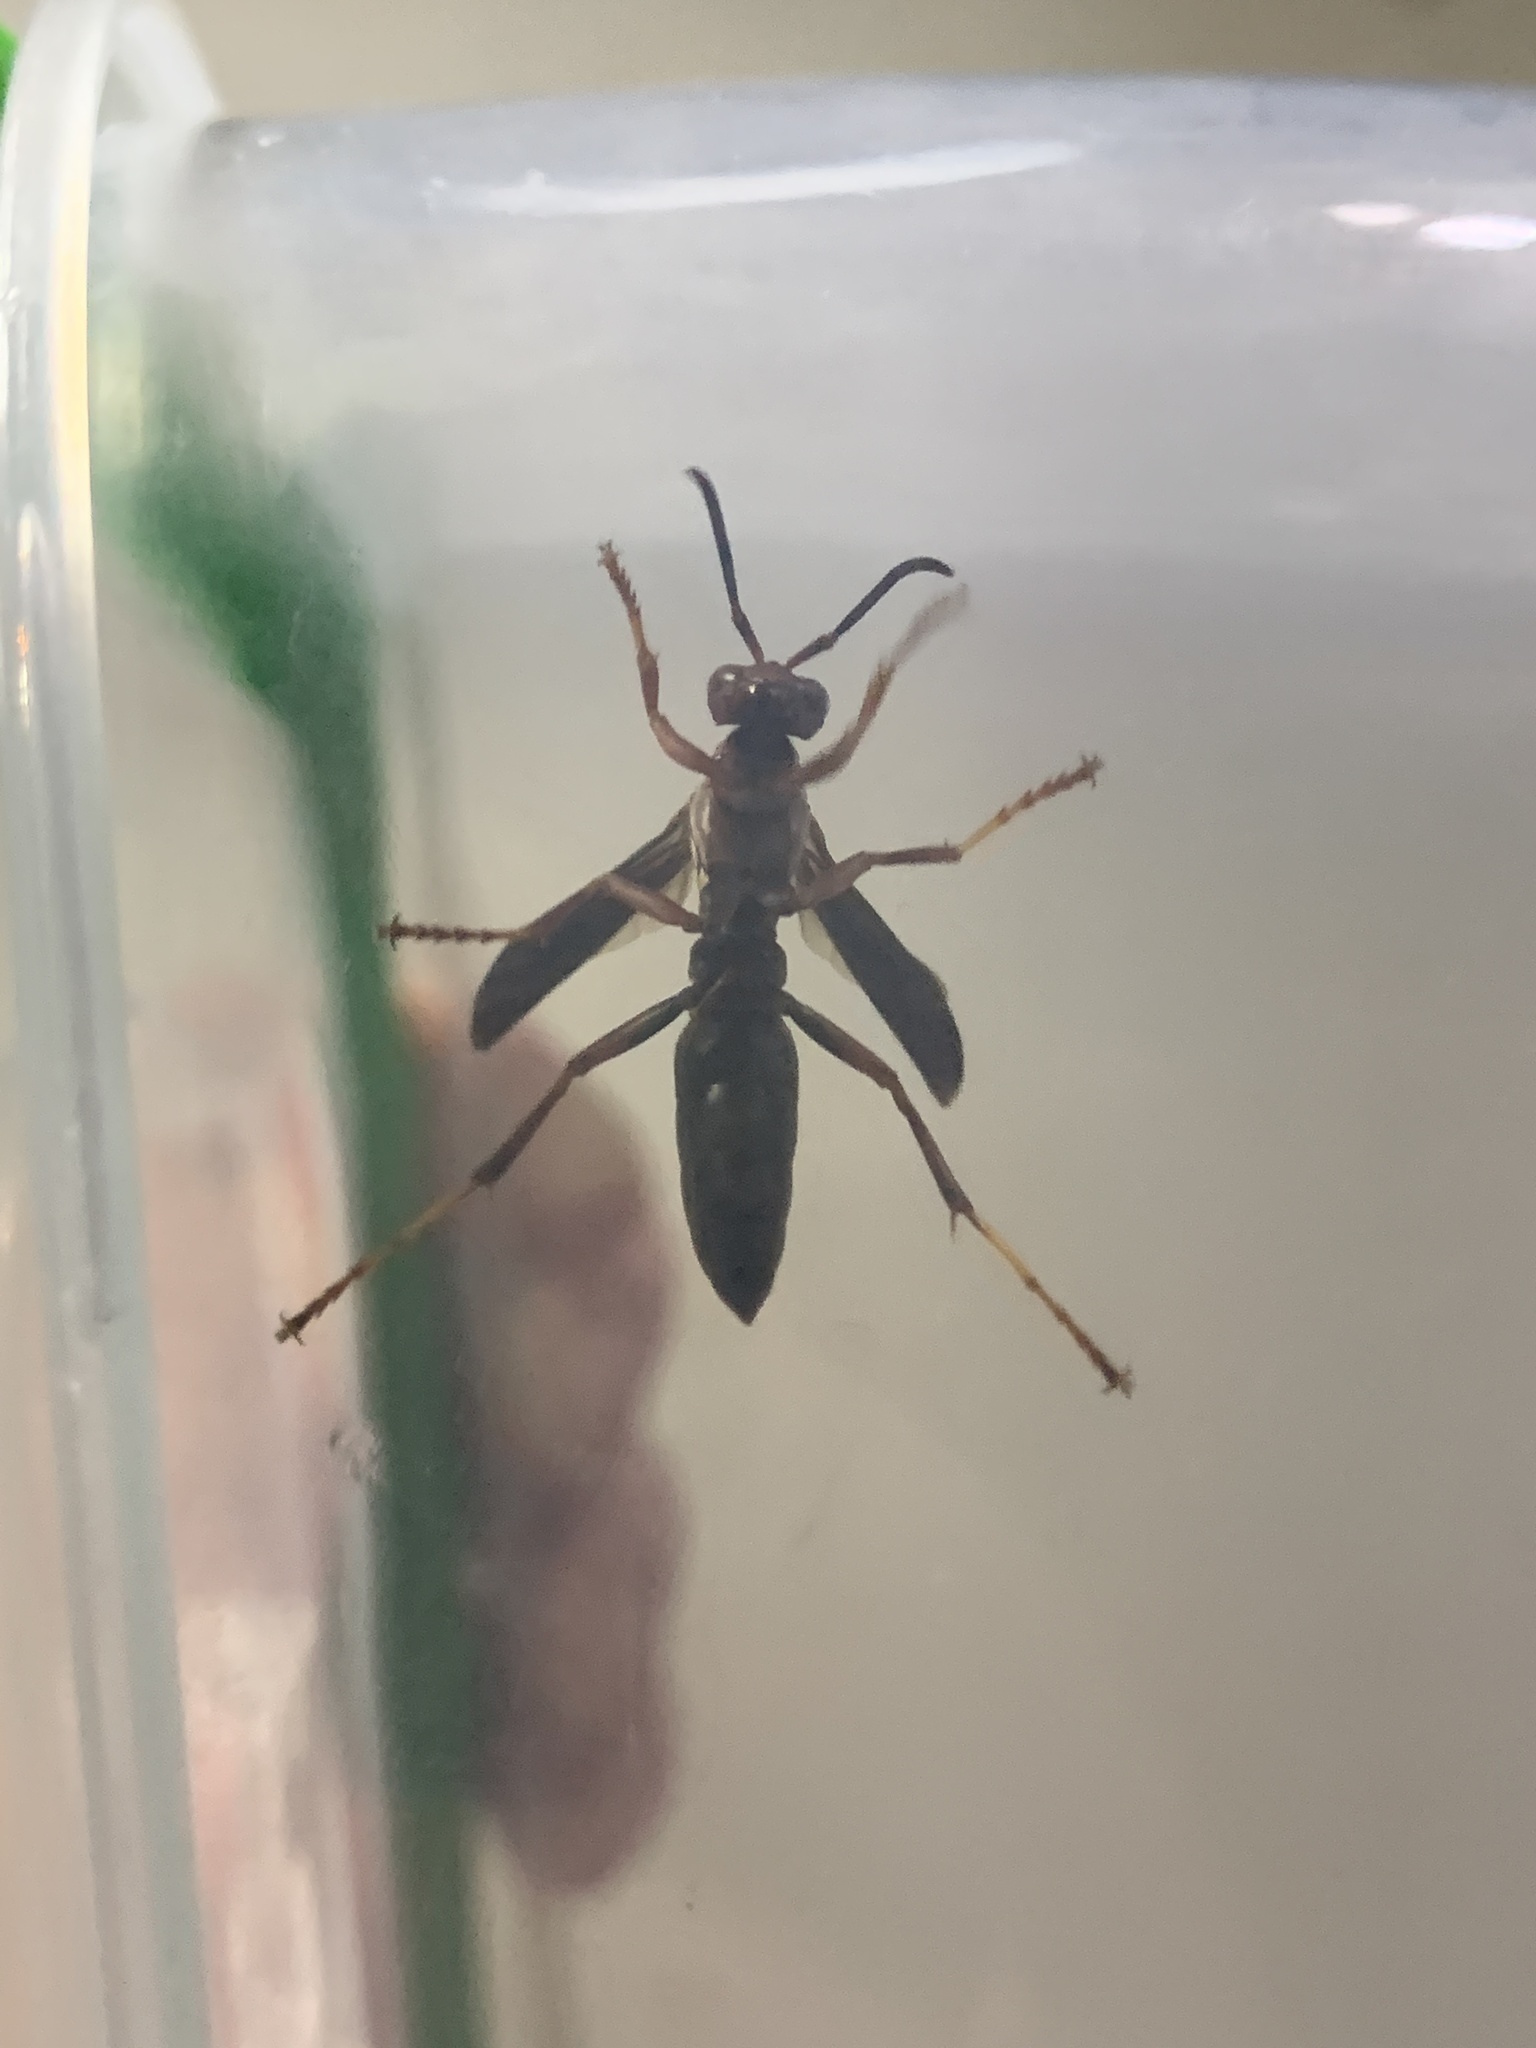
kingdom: Animalia
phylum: Arthropoda
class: Insecta
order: Hymenoptera
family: Eumenidae
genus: Polistes
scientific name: Polistes metricus
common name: Metric paper wasp
